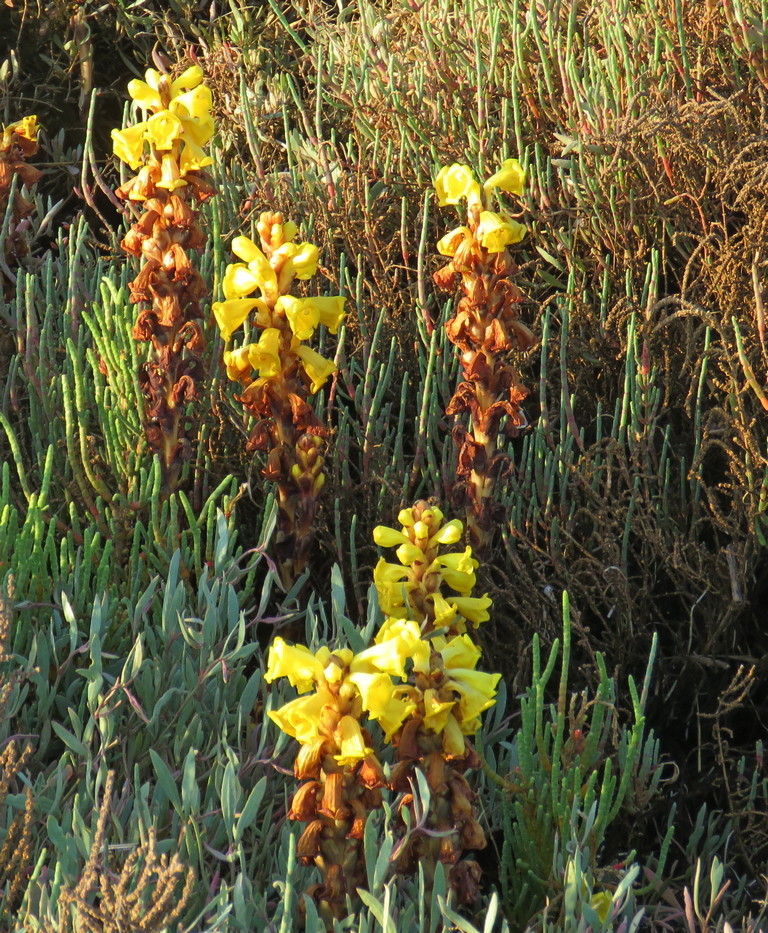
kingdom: Plantae
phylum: Tracheophyta
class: Magnoliopsida
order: Lamiales
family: Orobanchaceae
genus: Cistanche
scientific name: Cistanche phelypaea
